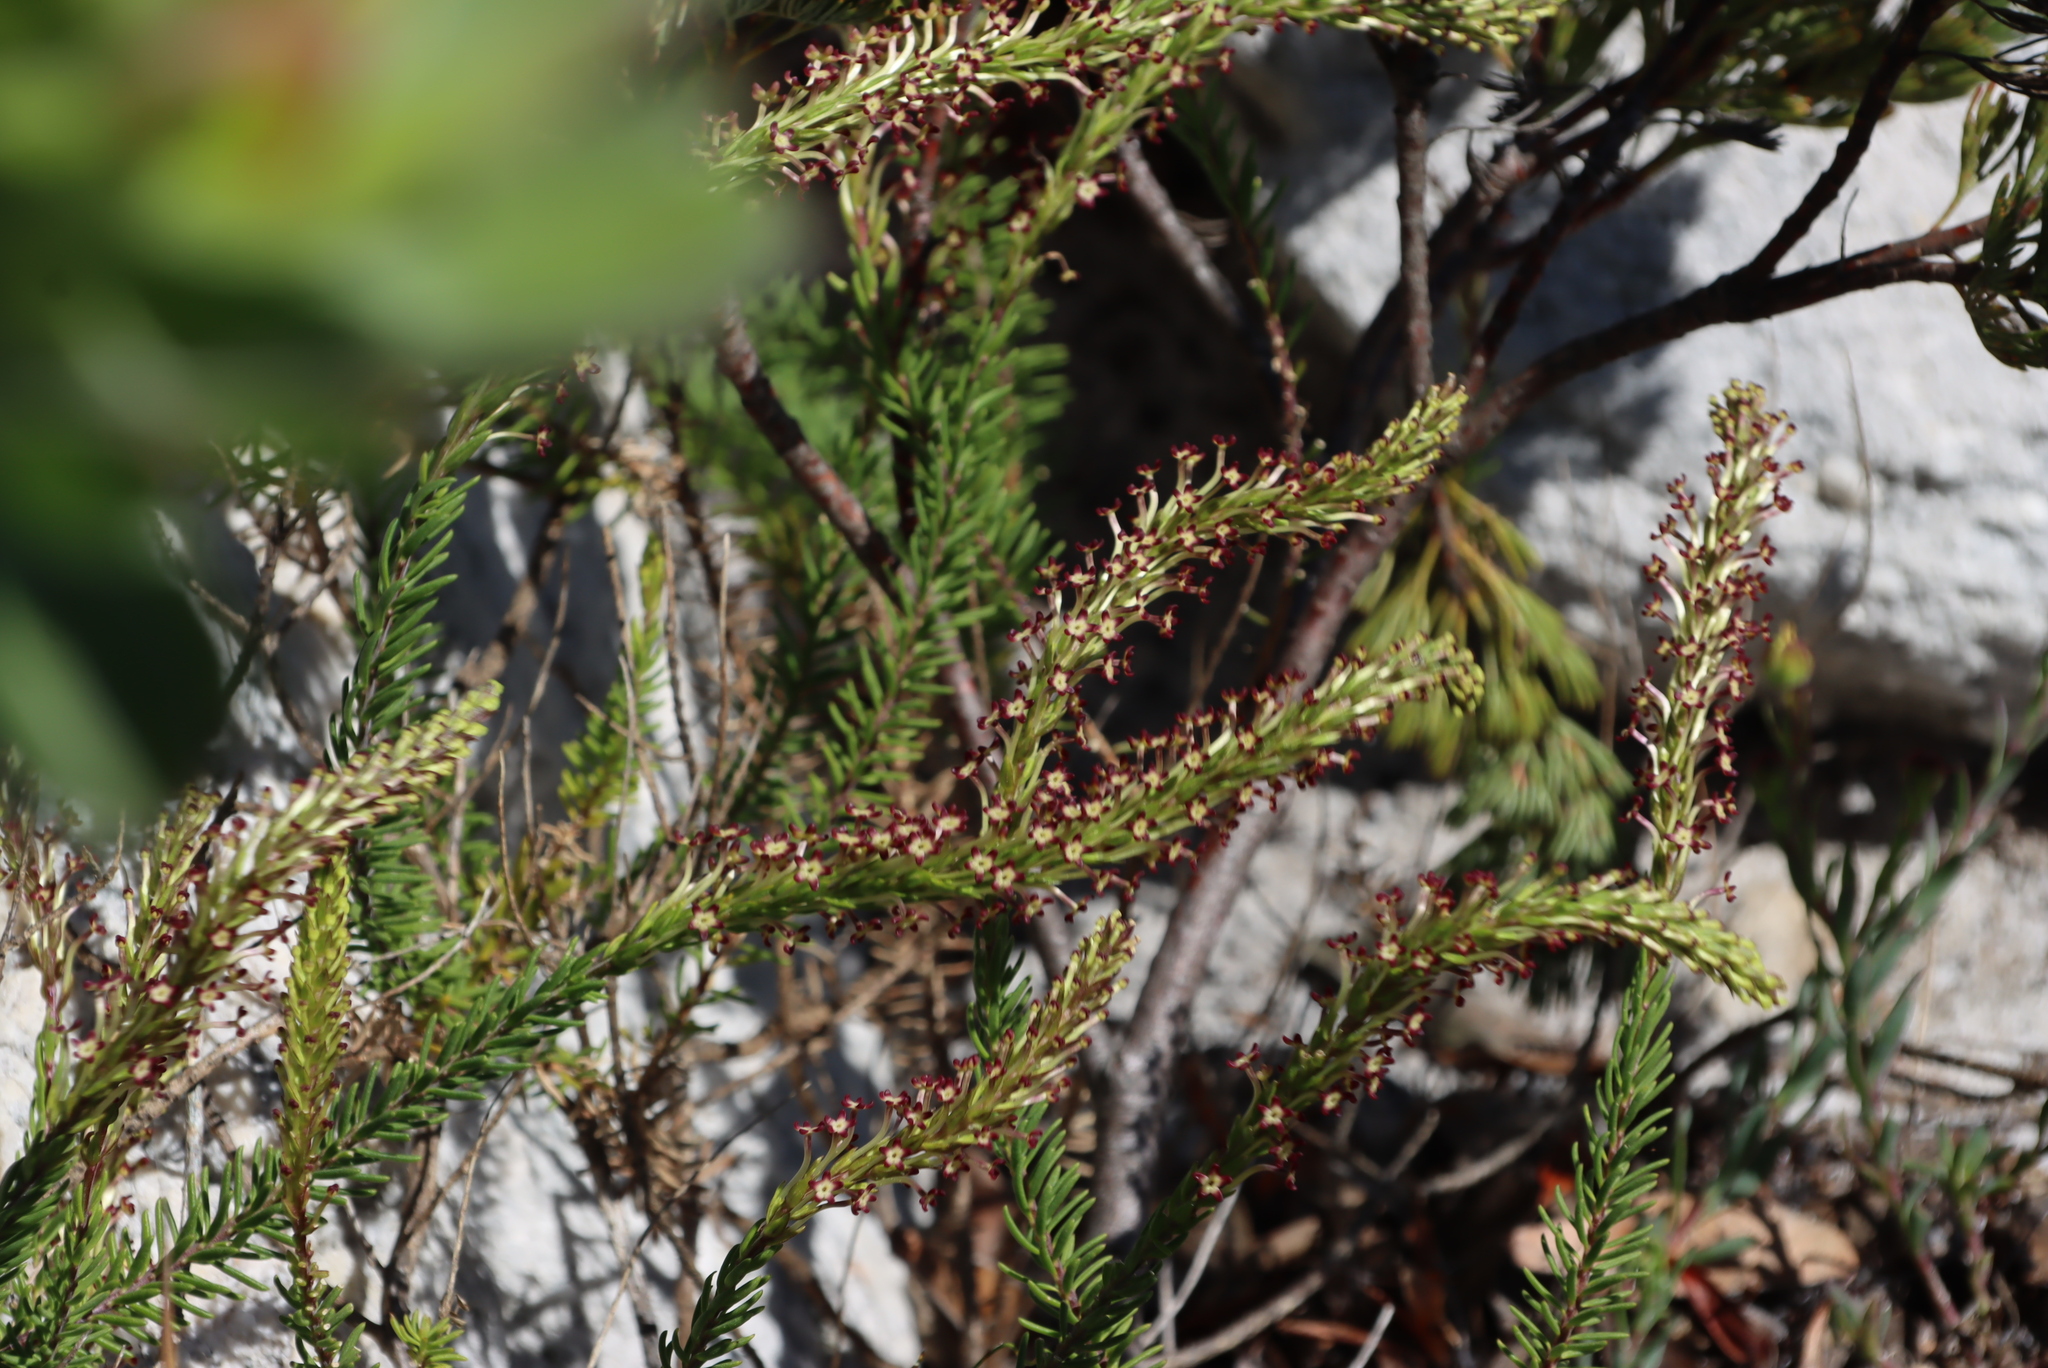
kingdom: Plantae
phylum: Tracheophyta
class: Magnoliopsida
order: Lamiales
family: Scrophulariaceae
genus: Microdon
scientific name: Microdon dubius
